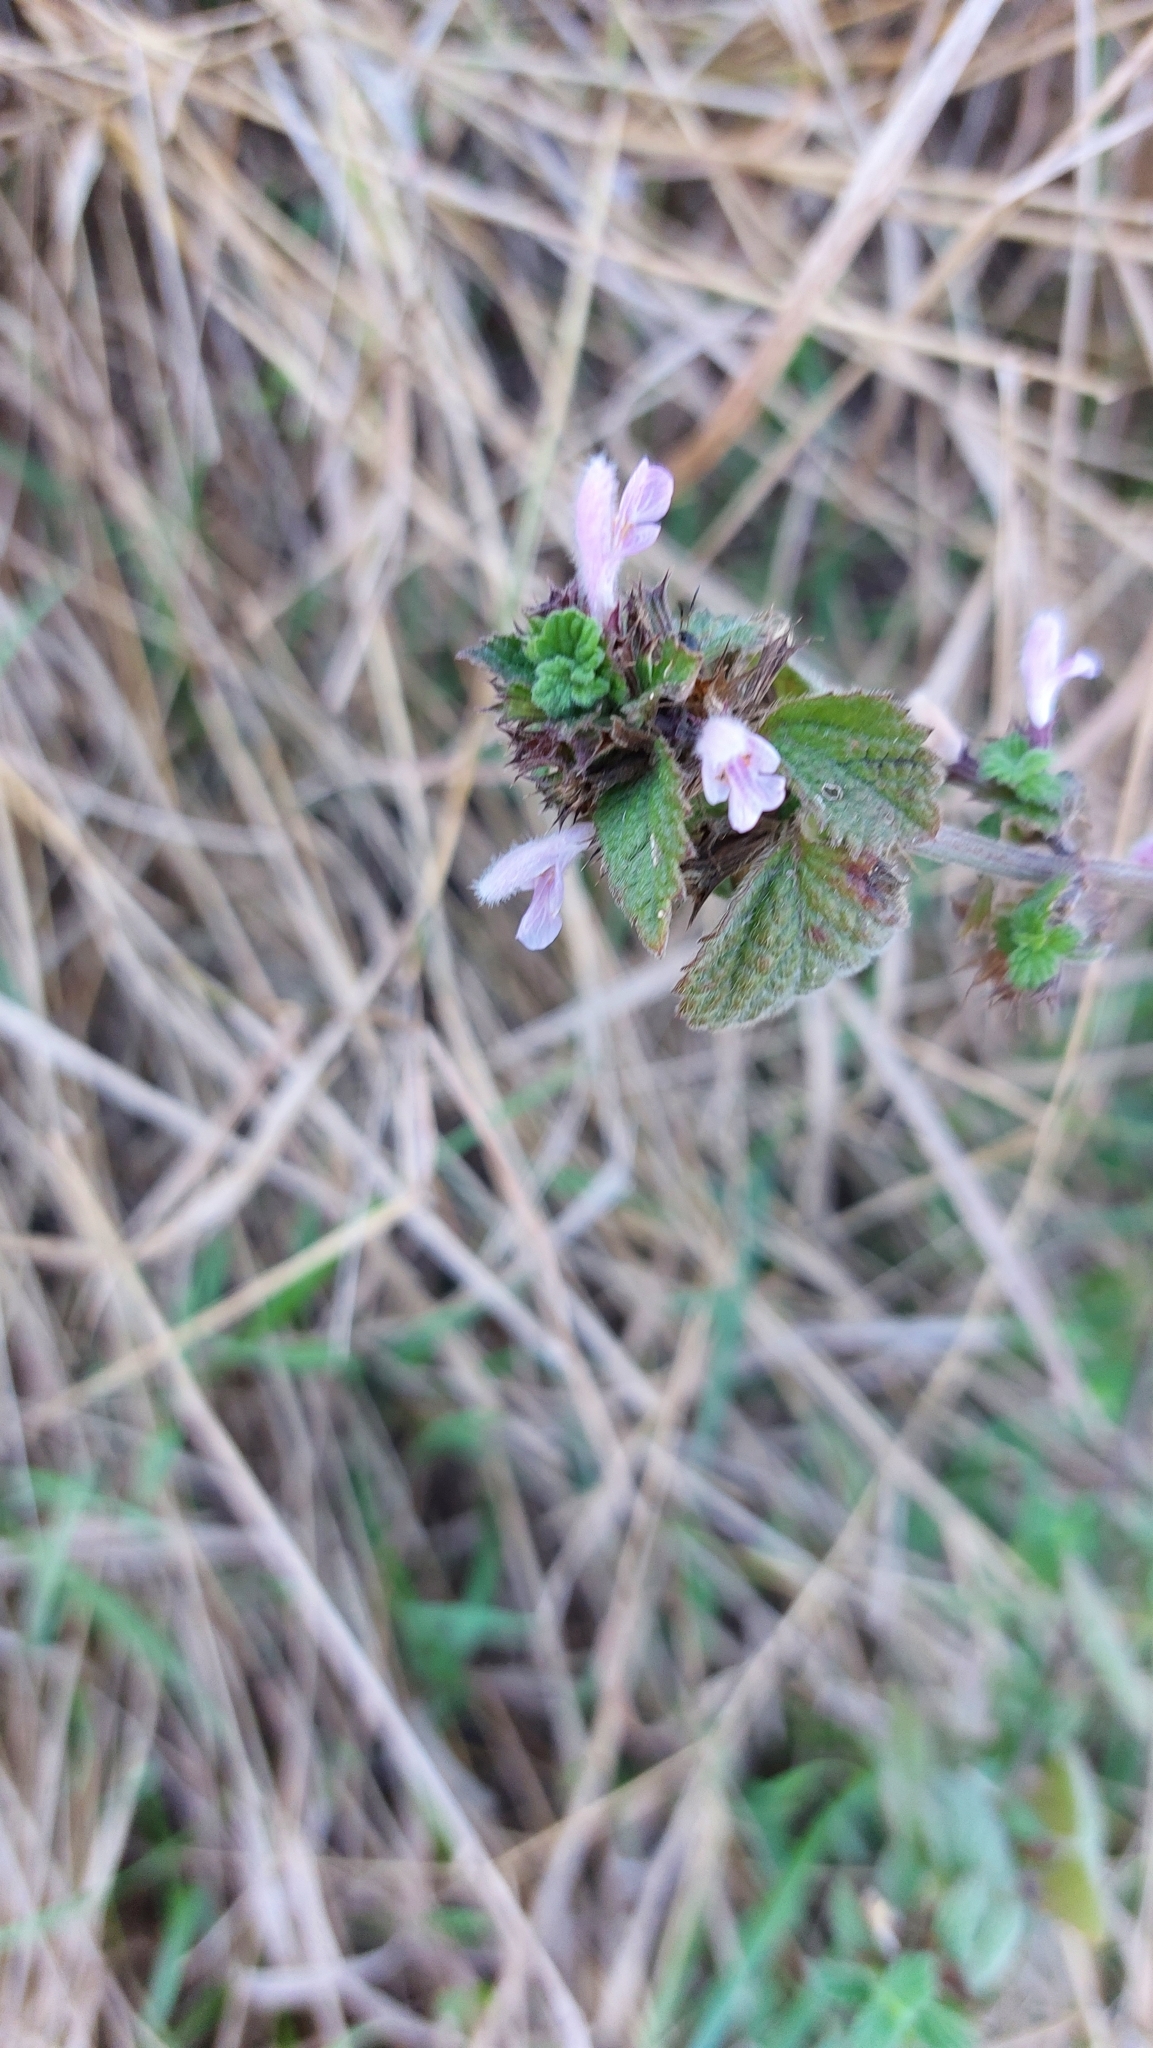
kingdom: Plantae
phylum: Tracheophyta
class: Magnoliopsida
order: Lamiales
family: Lamiaceae
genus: Ballota
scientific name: Ballota nigra
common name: Black horehound
